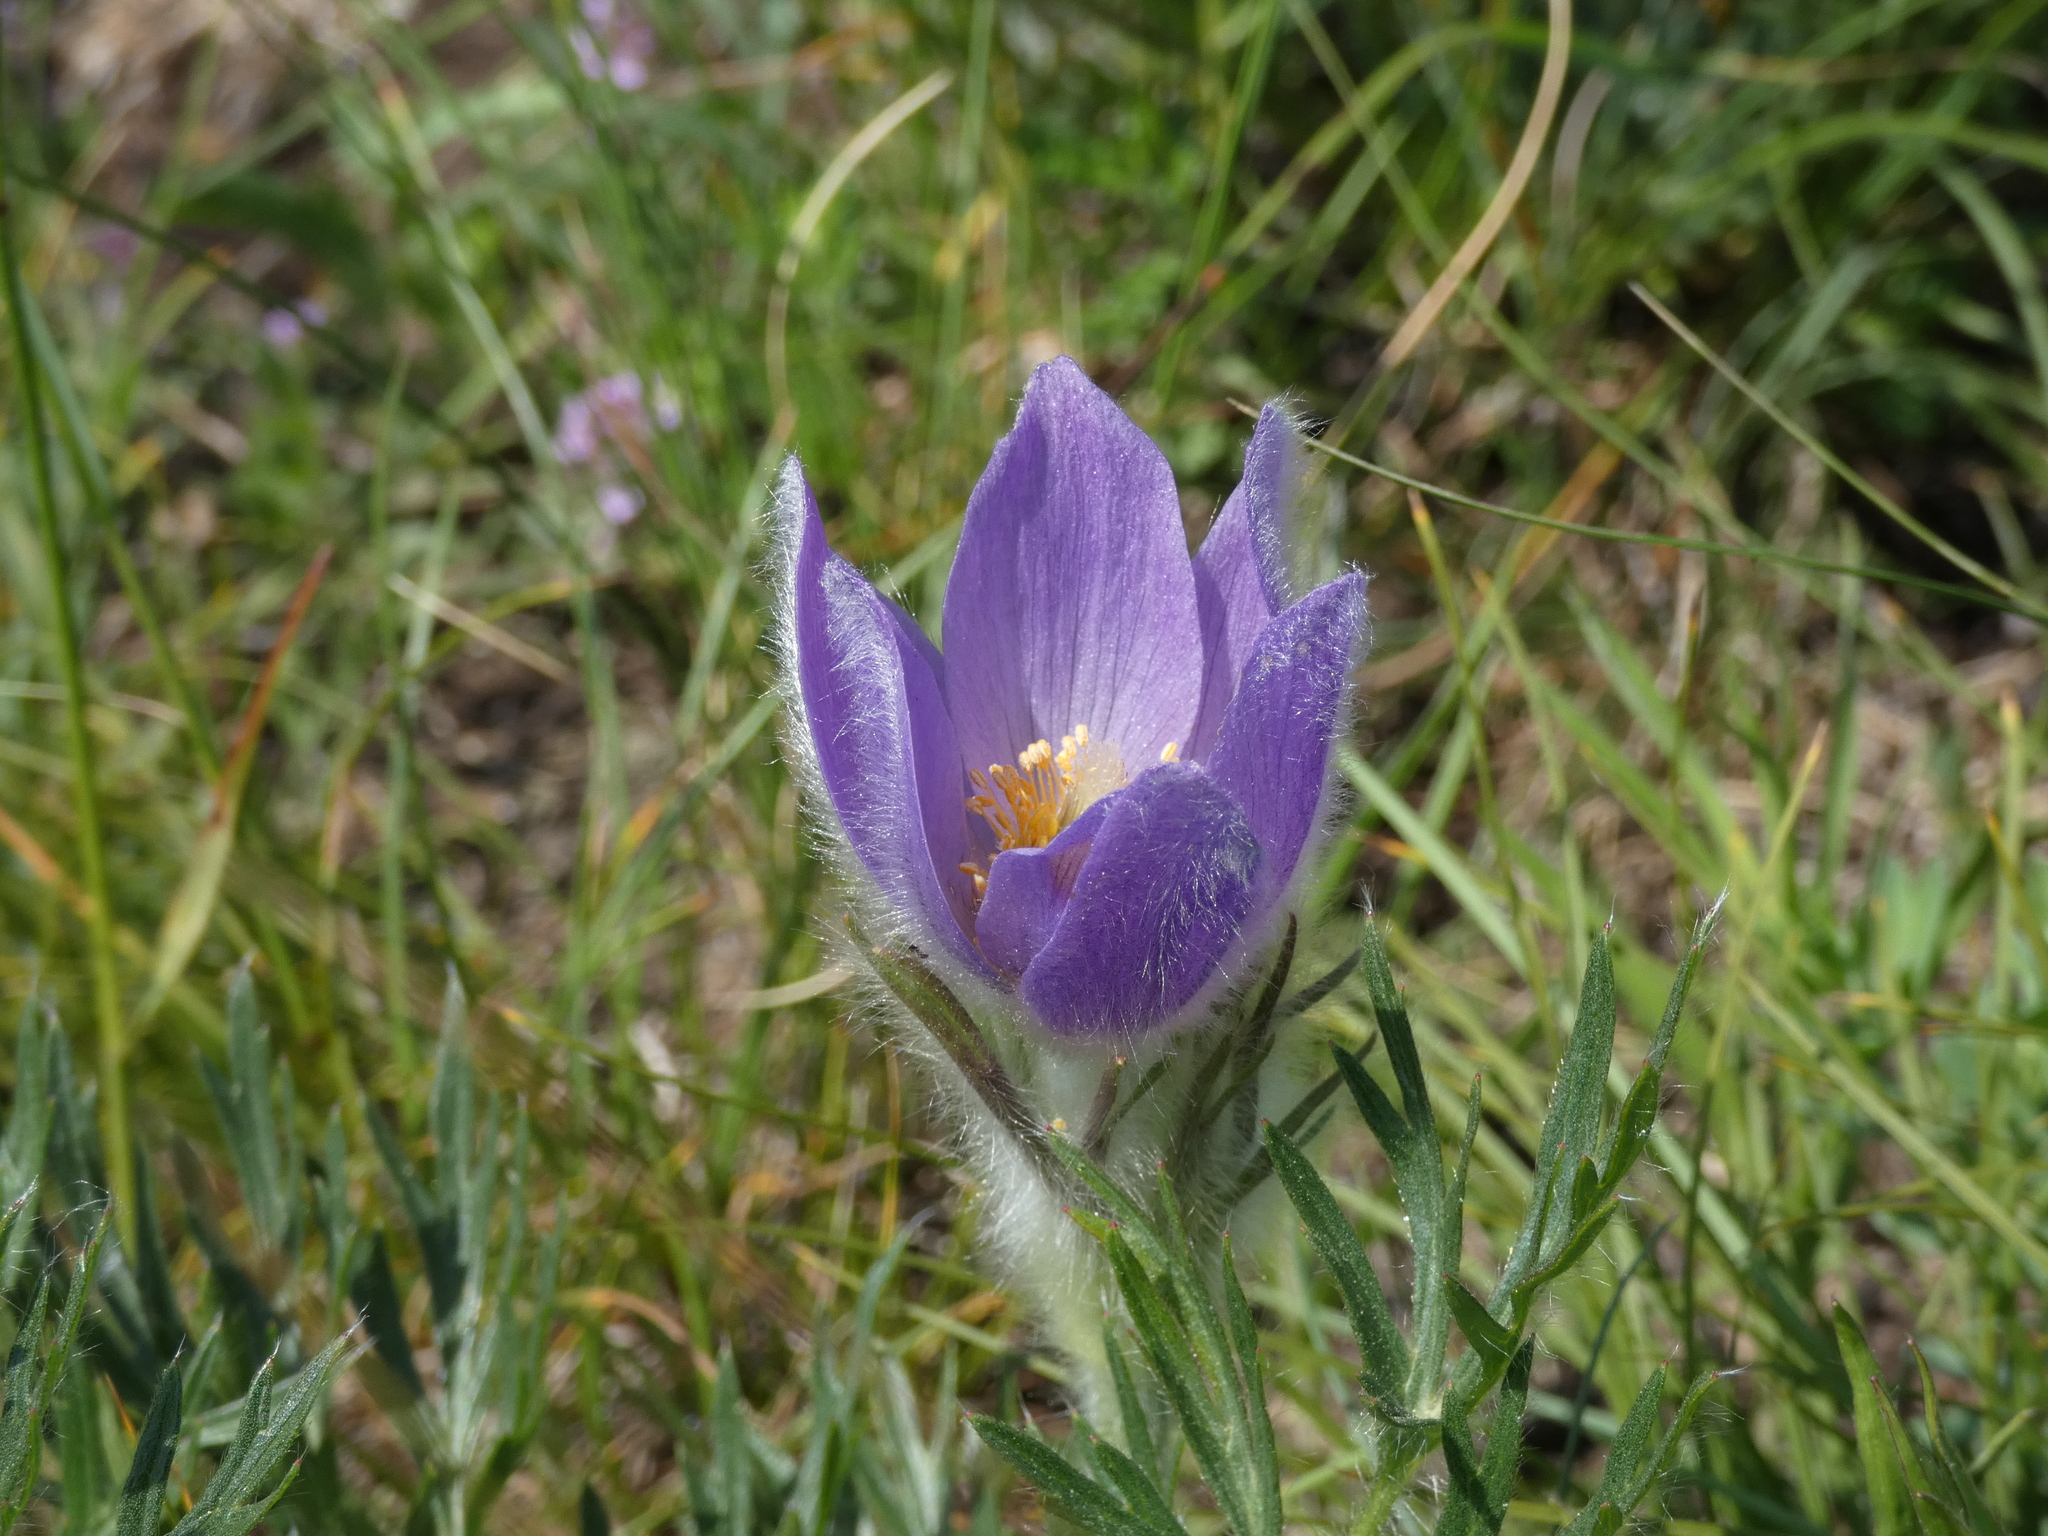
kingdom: Plantae
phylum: Tracheophyta
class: Magnoliopsida
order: Ranunculales
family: Ranunculaceae
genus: Pulsatilla
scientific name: Pulsatilla grandis
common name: Greater pasque flower
